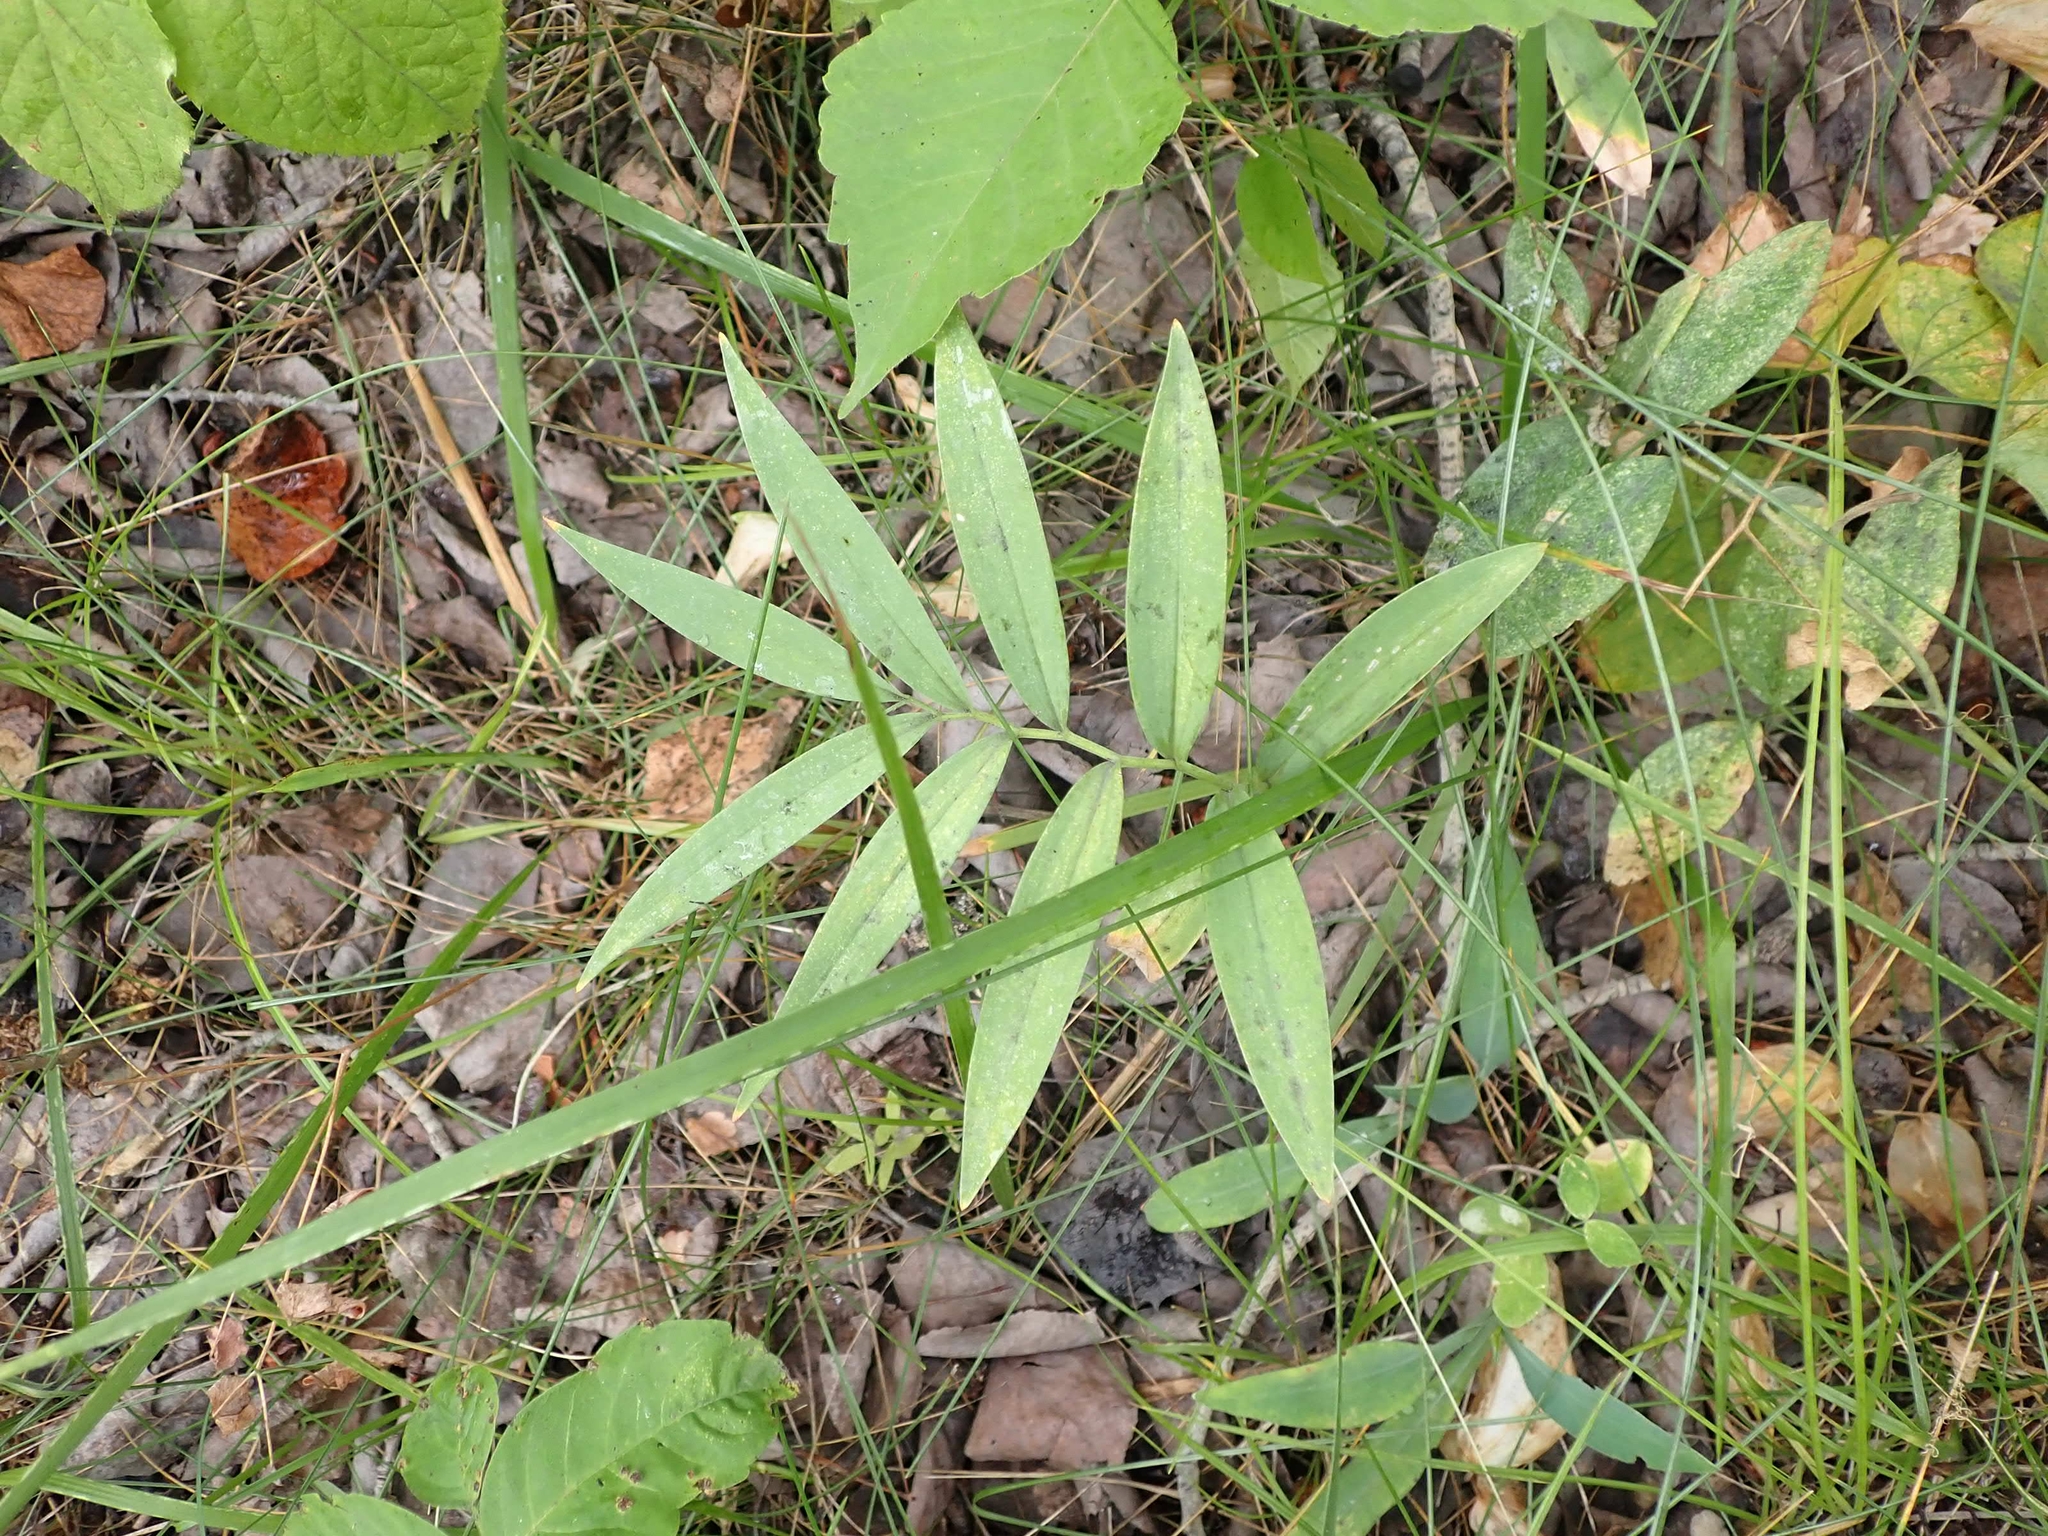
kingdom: Plantae
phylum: Tracheophyta
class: Liliopsida
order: Asparagales
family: Asparagaceae
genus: Maianthemum
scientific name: Maianthemum stellatum
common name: Little false solomon's seal
